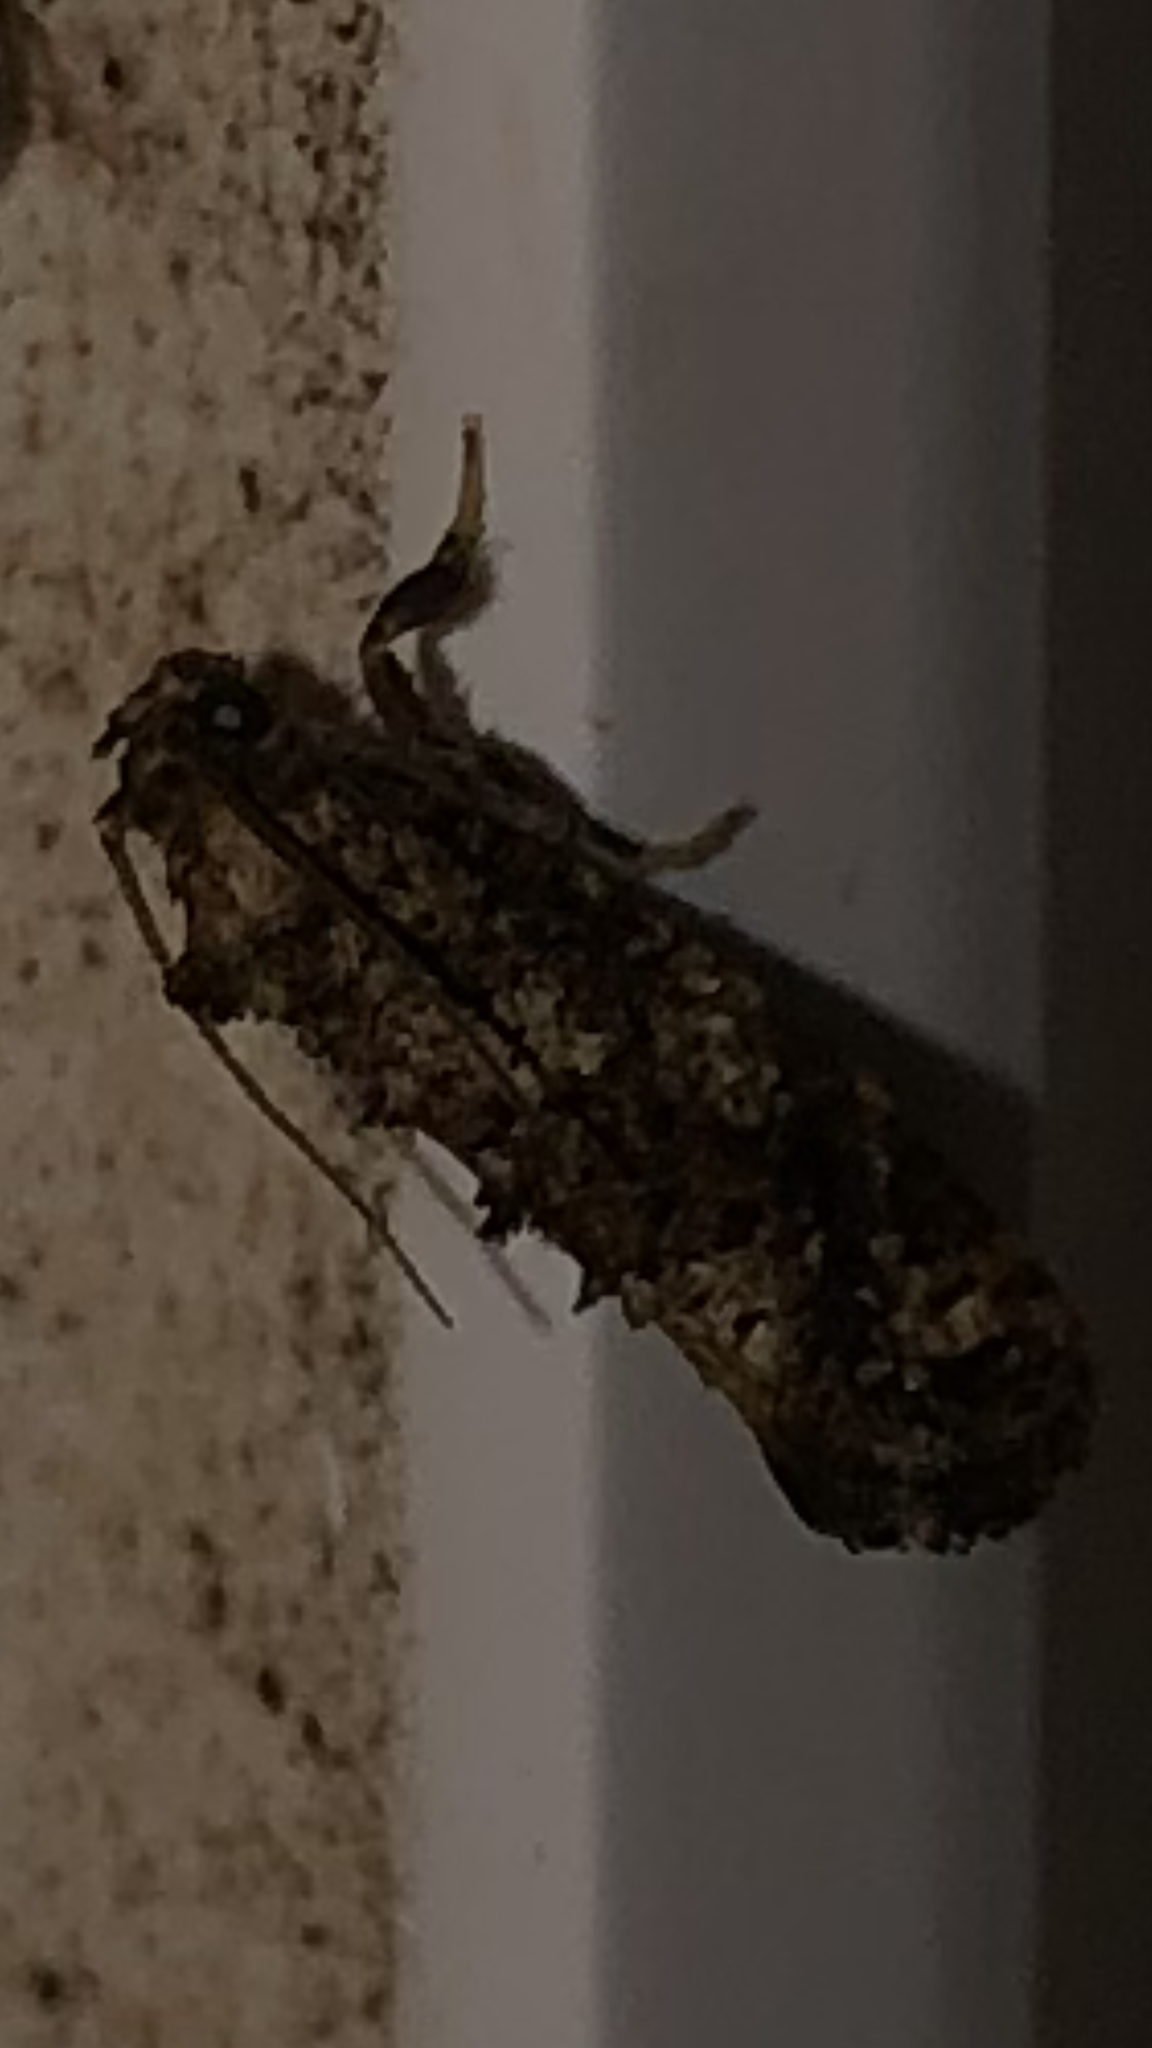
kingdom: Animalia
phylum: Arthropoda
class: Insecta
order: Lepidoptera
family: Tineidae
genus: Acrolophus
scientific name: Acrolophus cressoni
